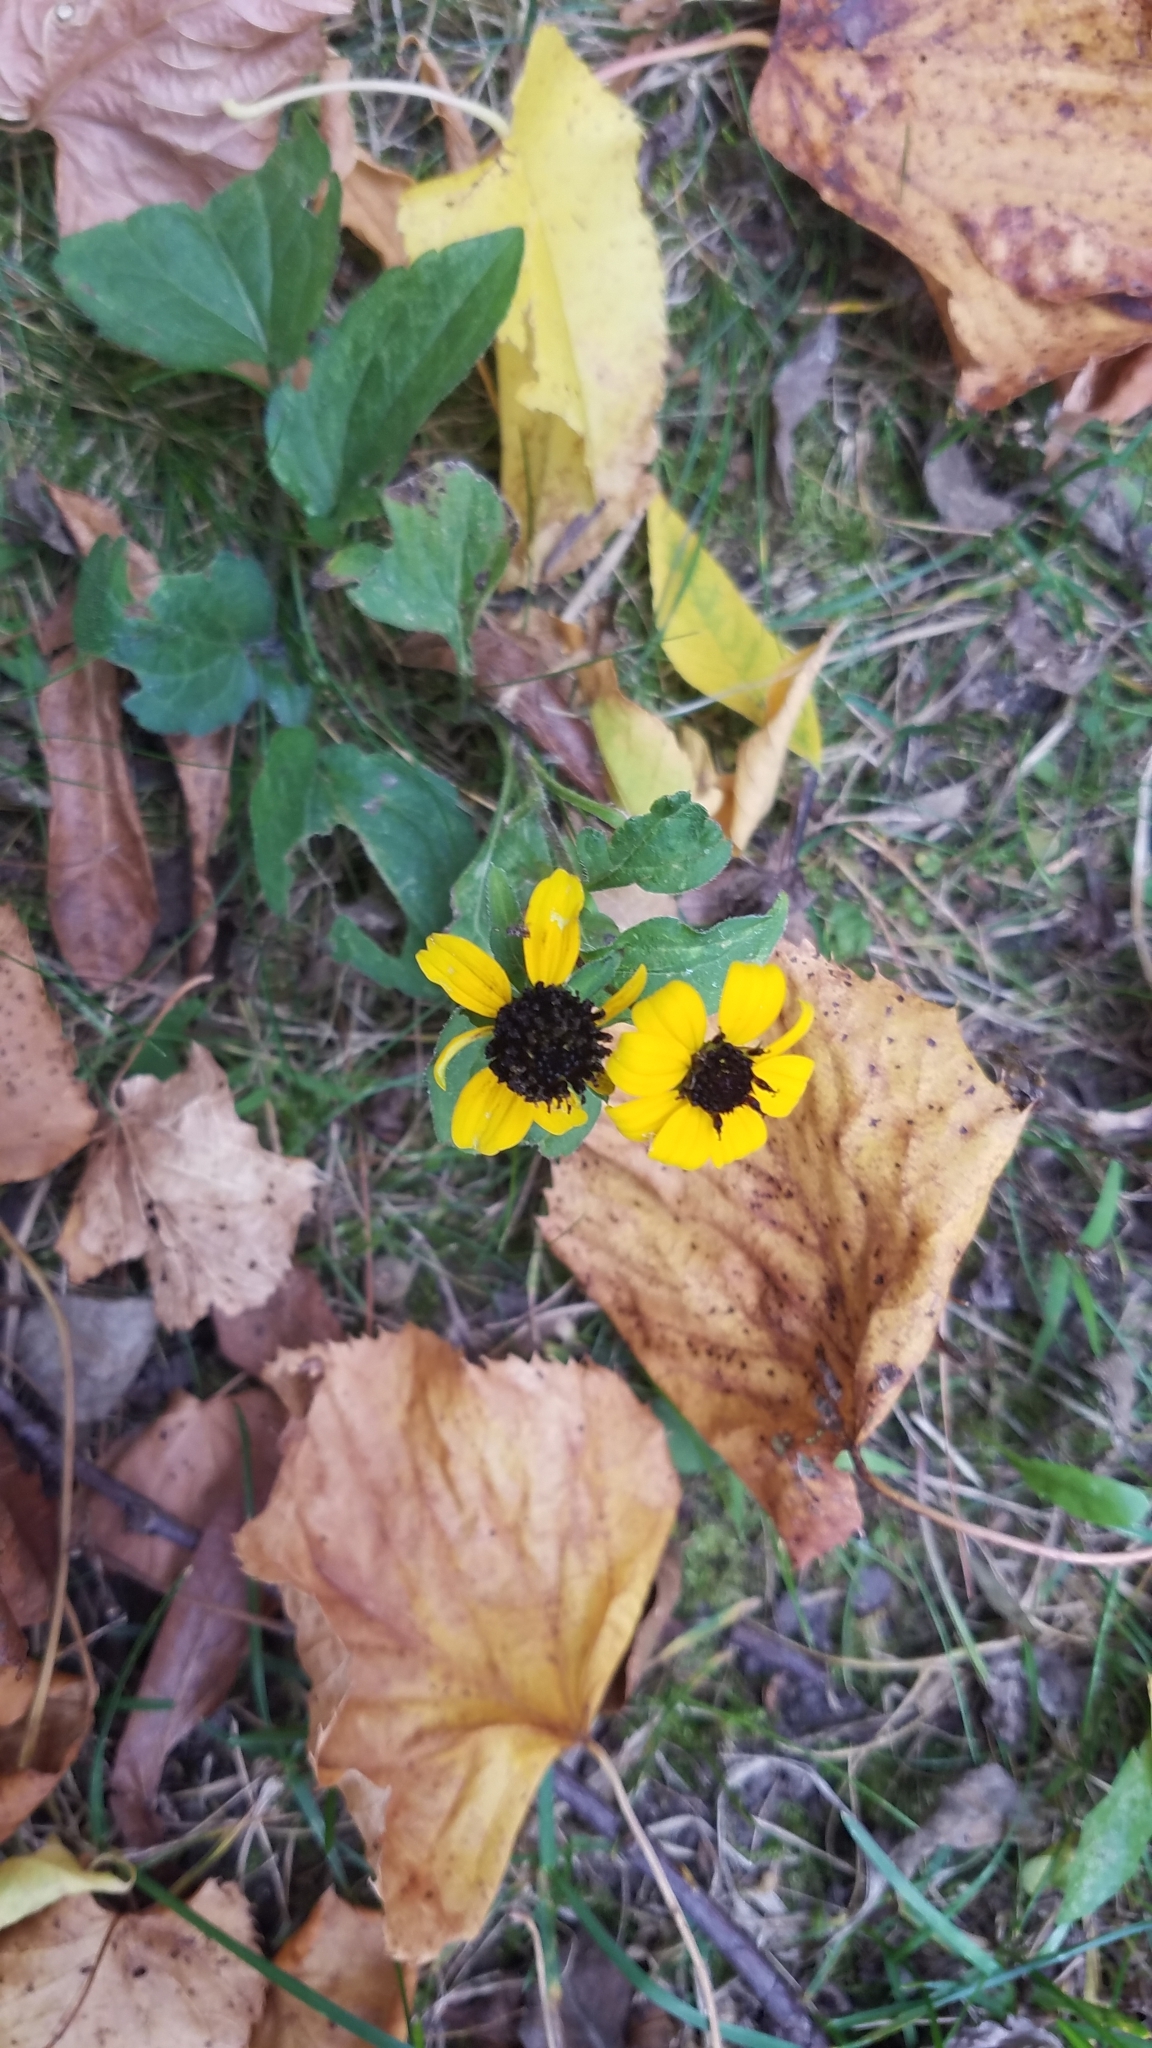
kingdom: Plantae
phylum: Tracheophyta
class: Magnoliopsida
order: Asterales
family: Asteraceae
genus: Rudbeckia
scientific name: Rudbeckia triloba
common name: Thin-leaved coneflower
